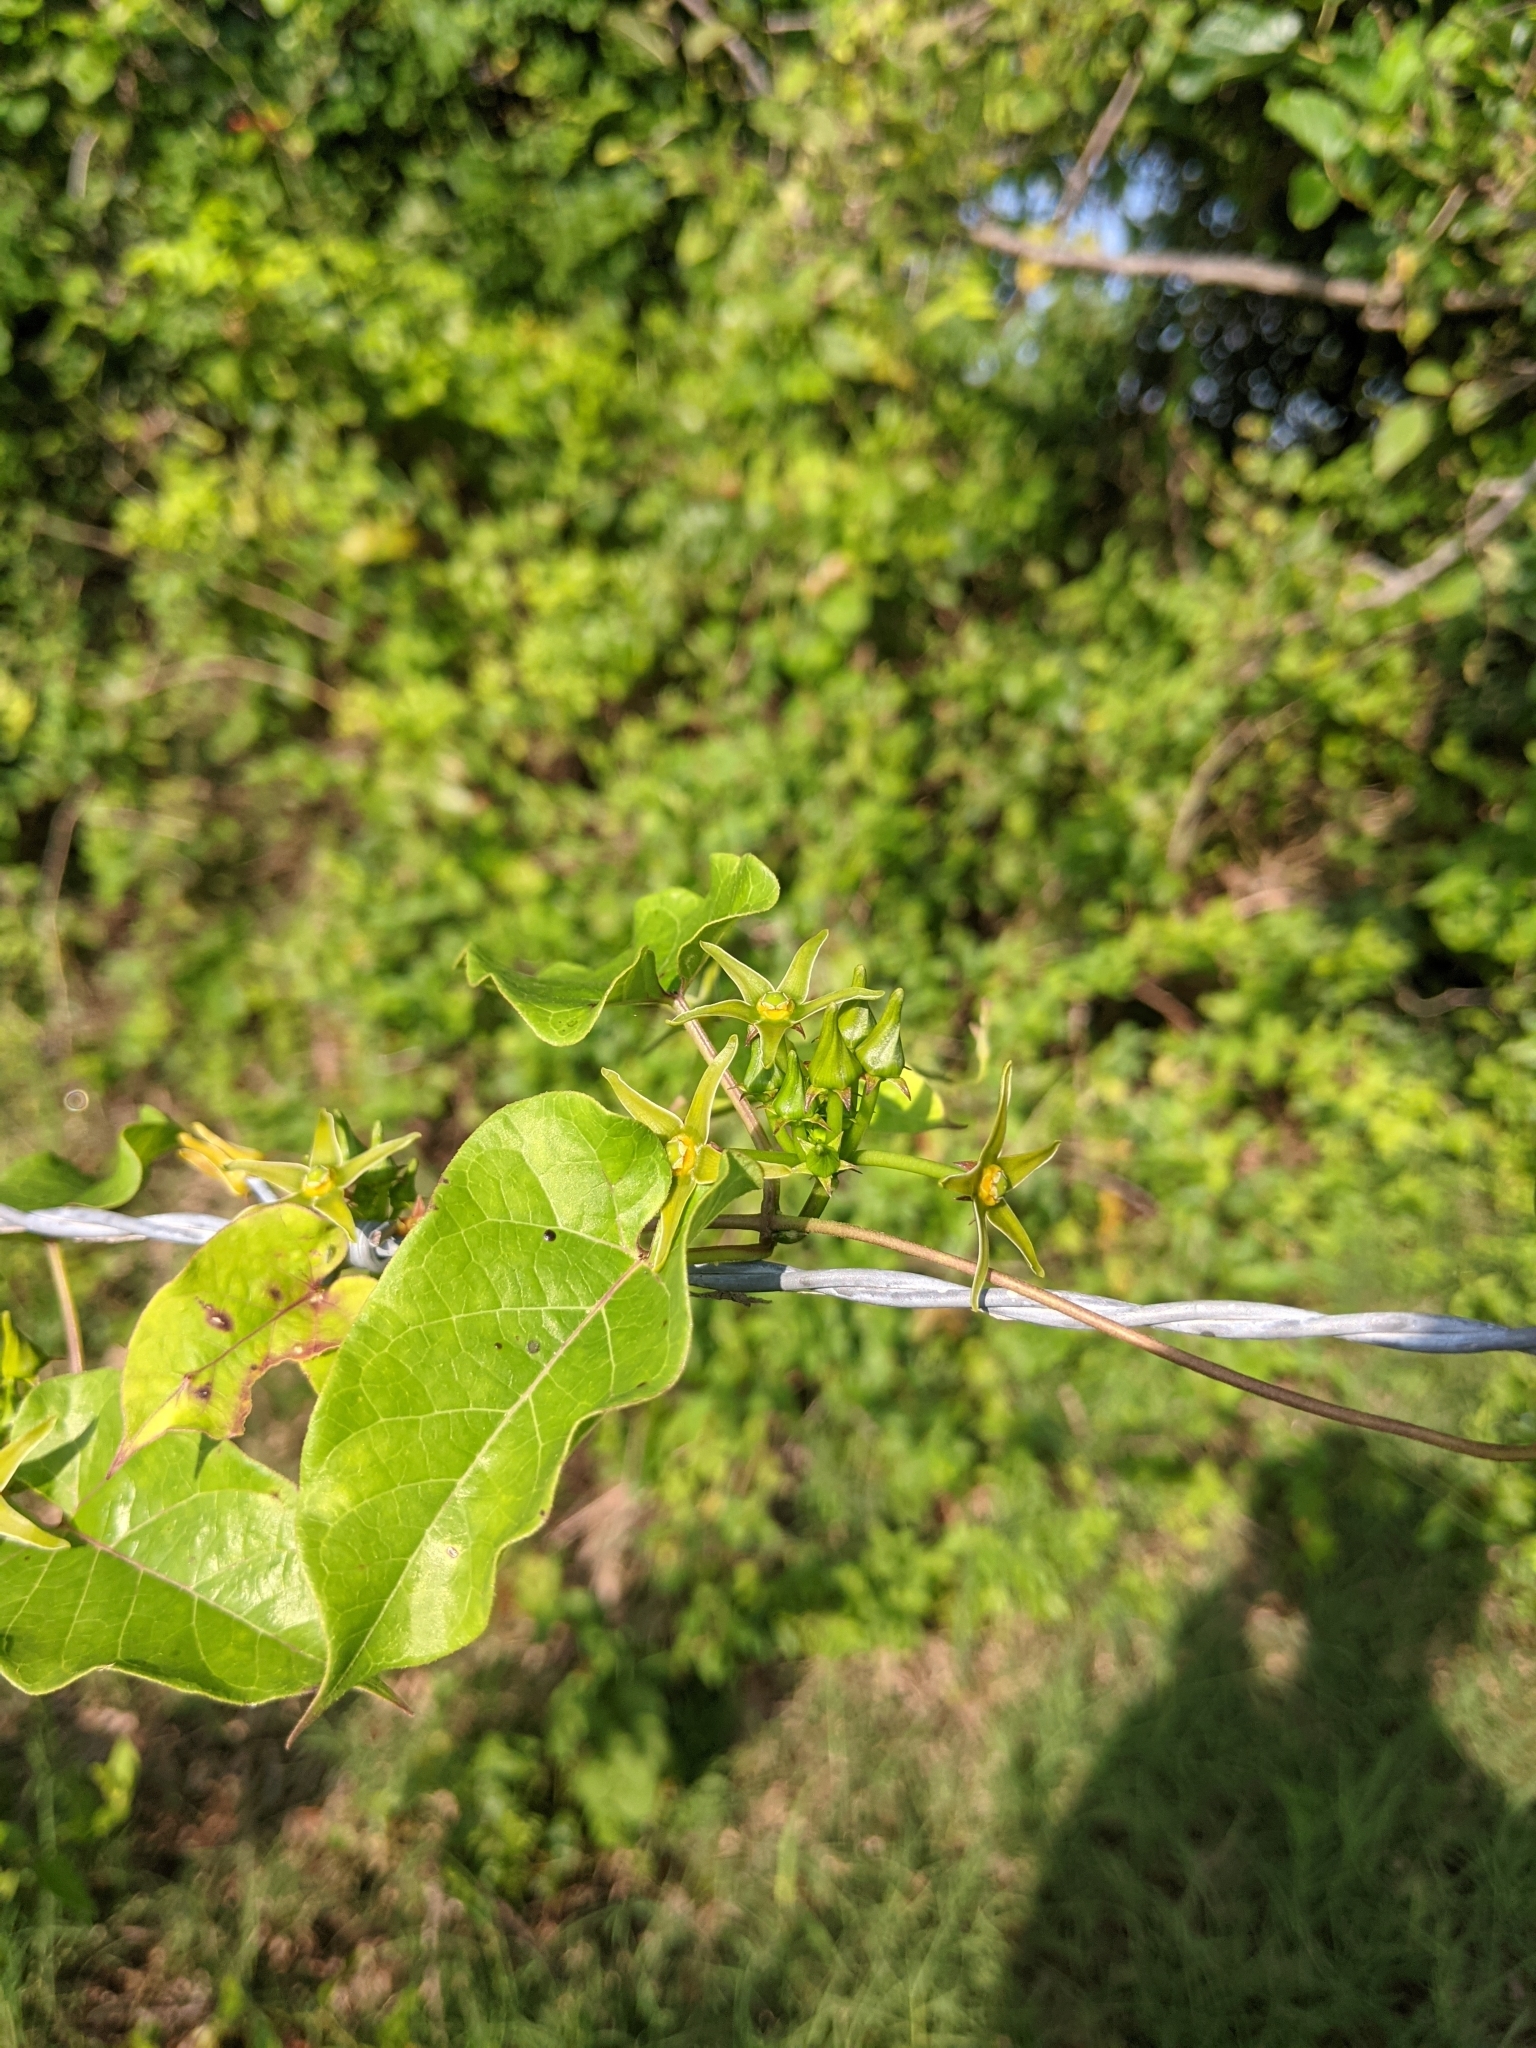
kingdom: Plantae
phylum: Tracheophyta
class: Magnoliopsida
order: Gentianales
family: Apocynaceae
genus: Gonolobus
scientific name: Gonolobus suberosus
